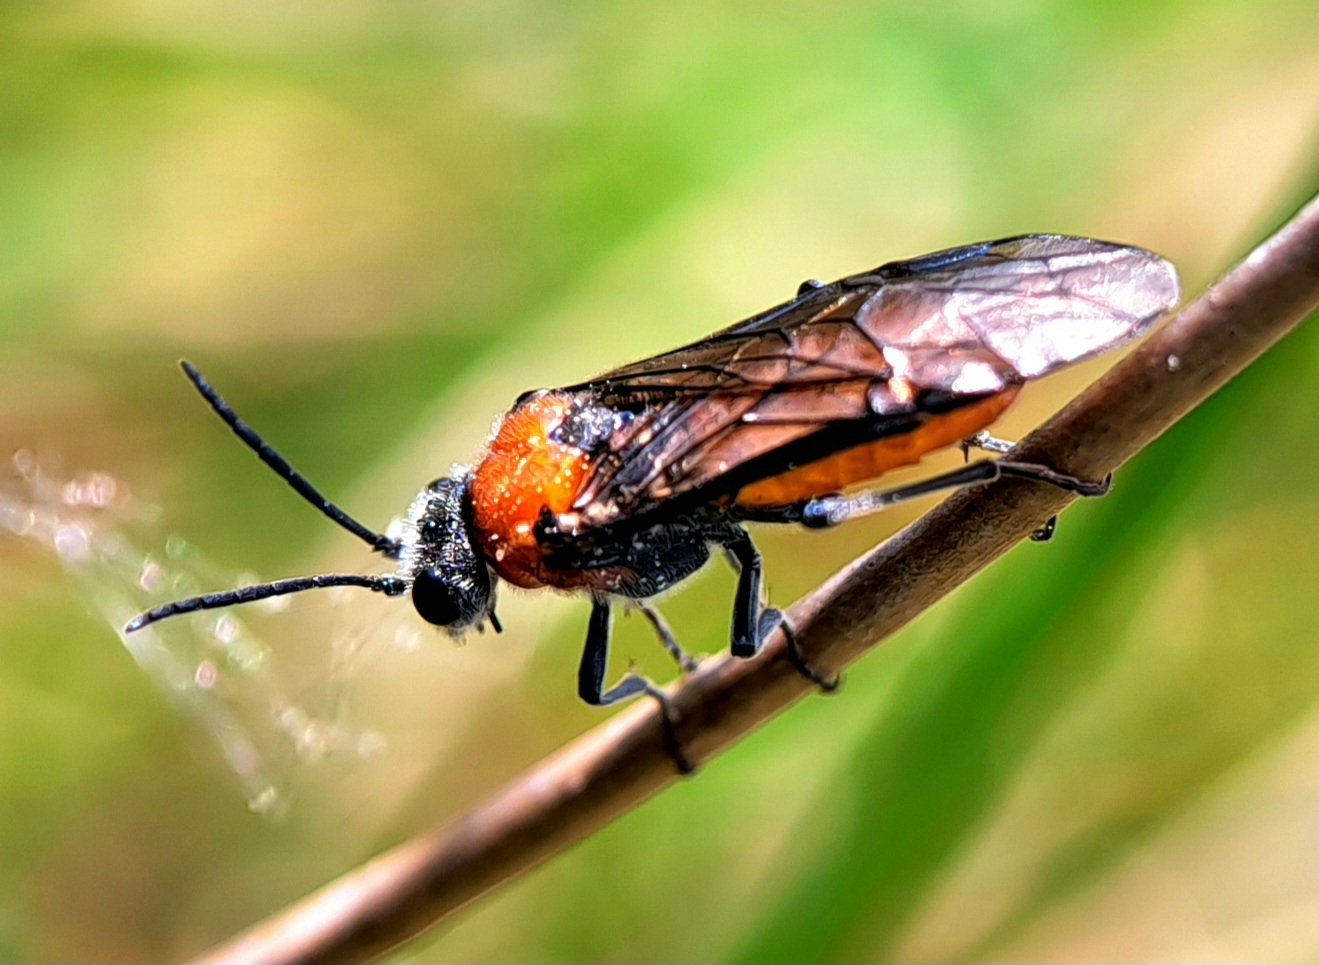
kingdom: Animalia
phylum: Arthropoda
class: Insecta
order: Hymenoptera
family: Tenthredinidae
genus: Dolerus
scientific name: Dolerus madidus
